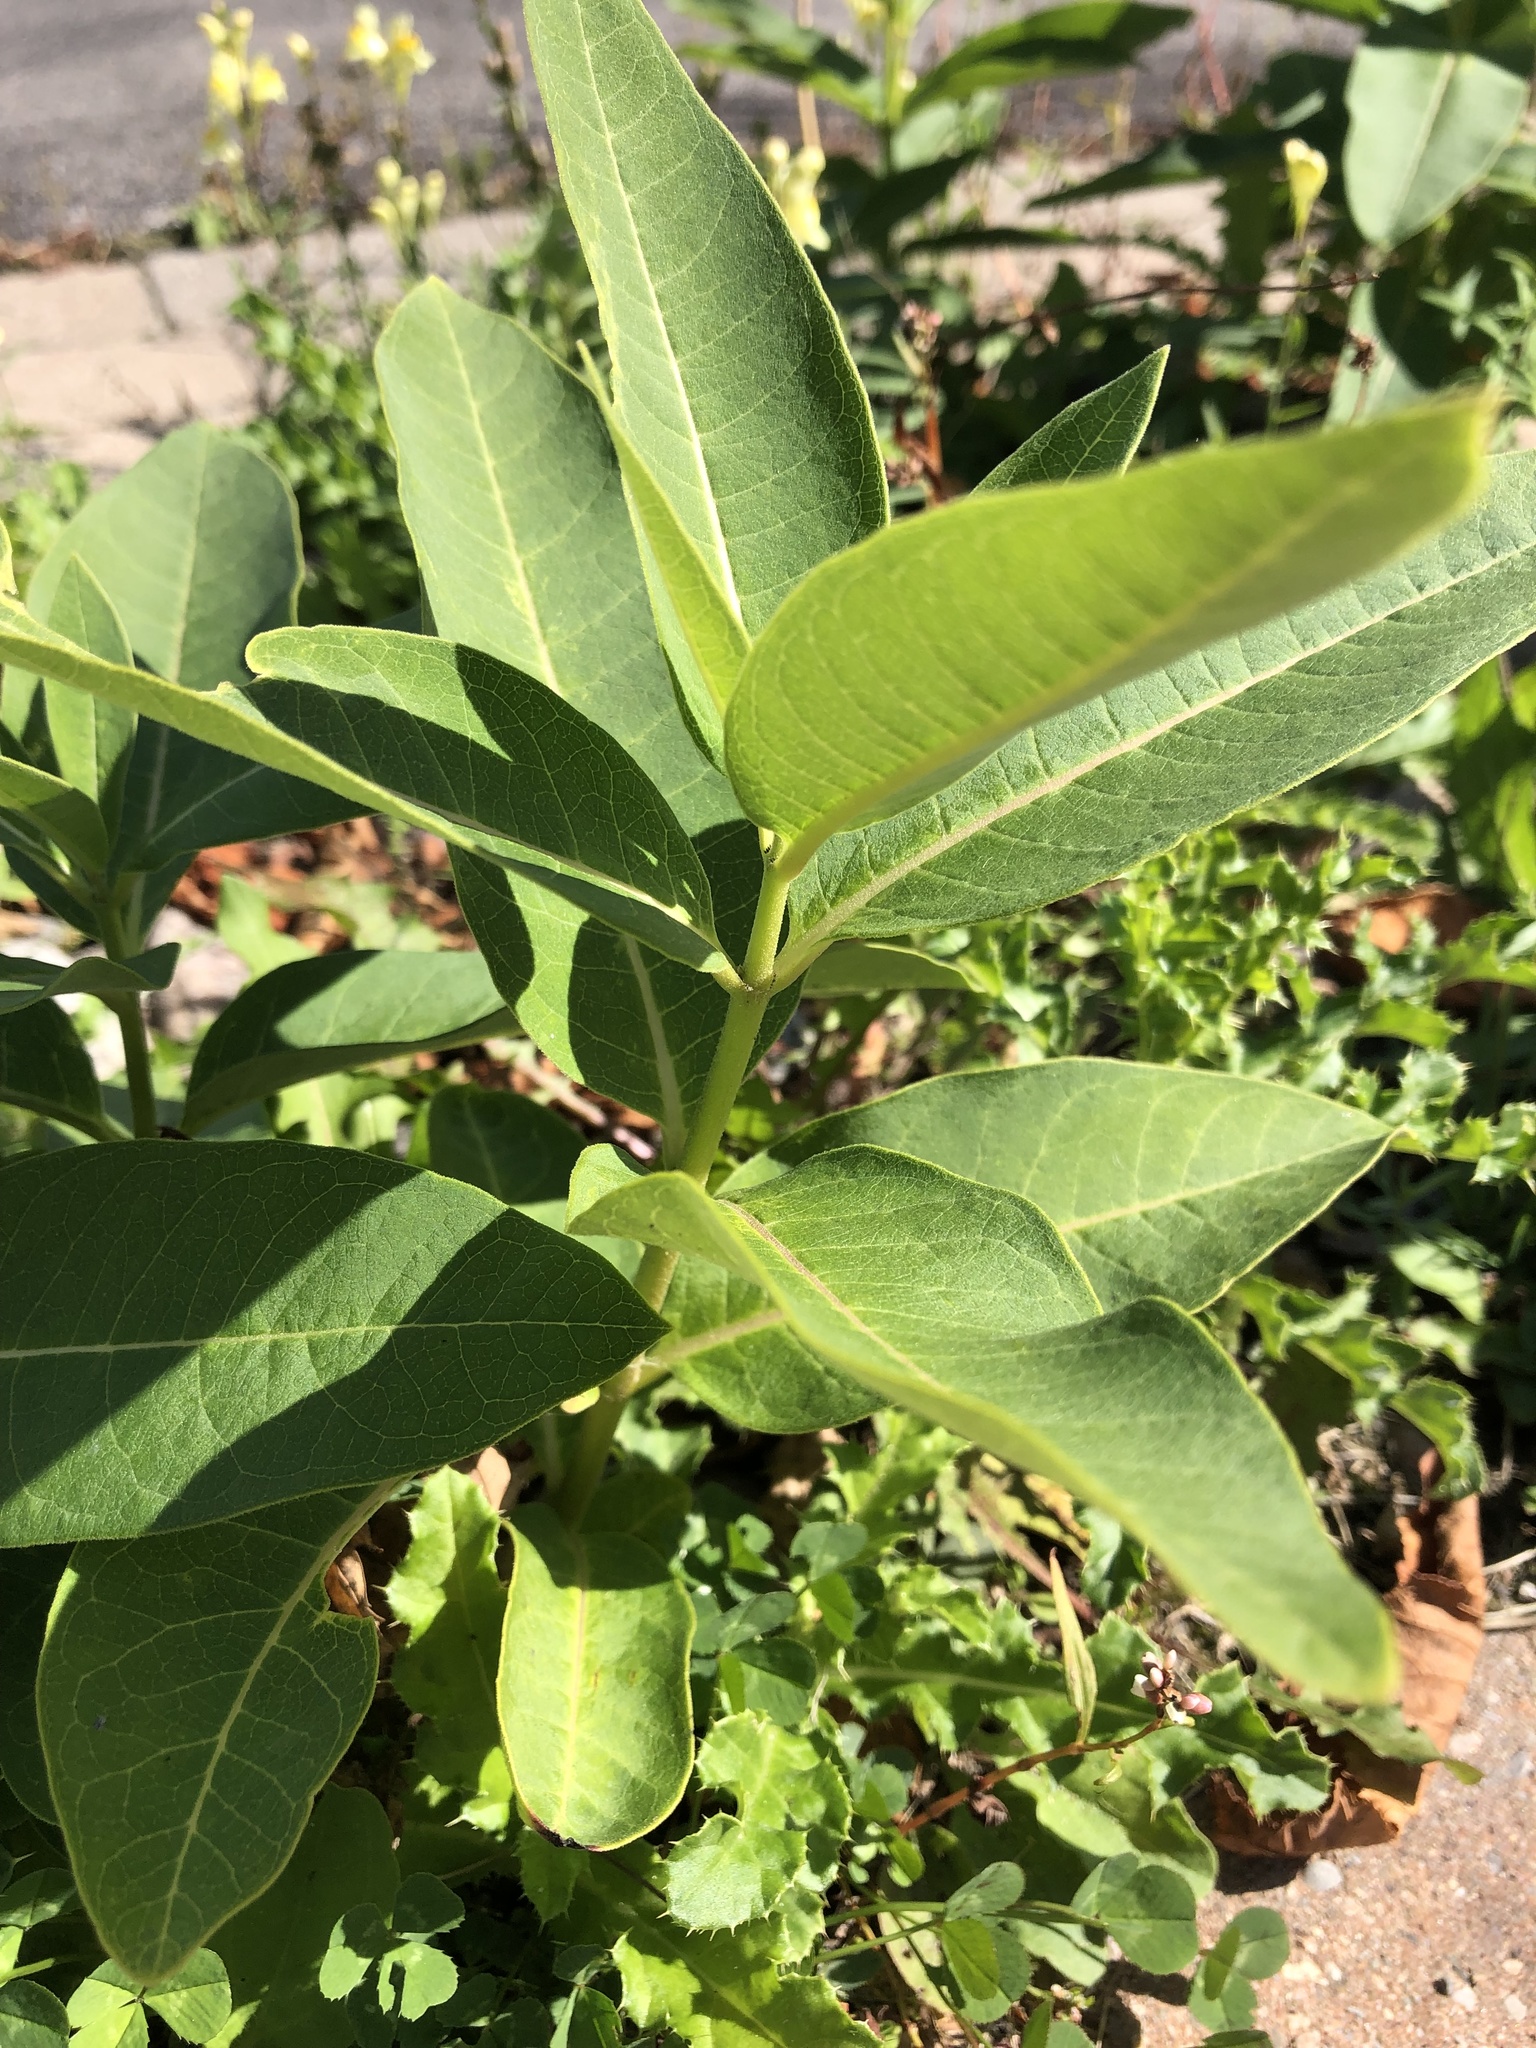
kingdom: Plantae
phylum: Tracheophyta
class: Magnoliopsida
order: Gentianales
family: Apocynaceae
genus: Asclepias
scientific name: Asclepias syriaca
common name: Common milkweed
